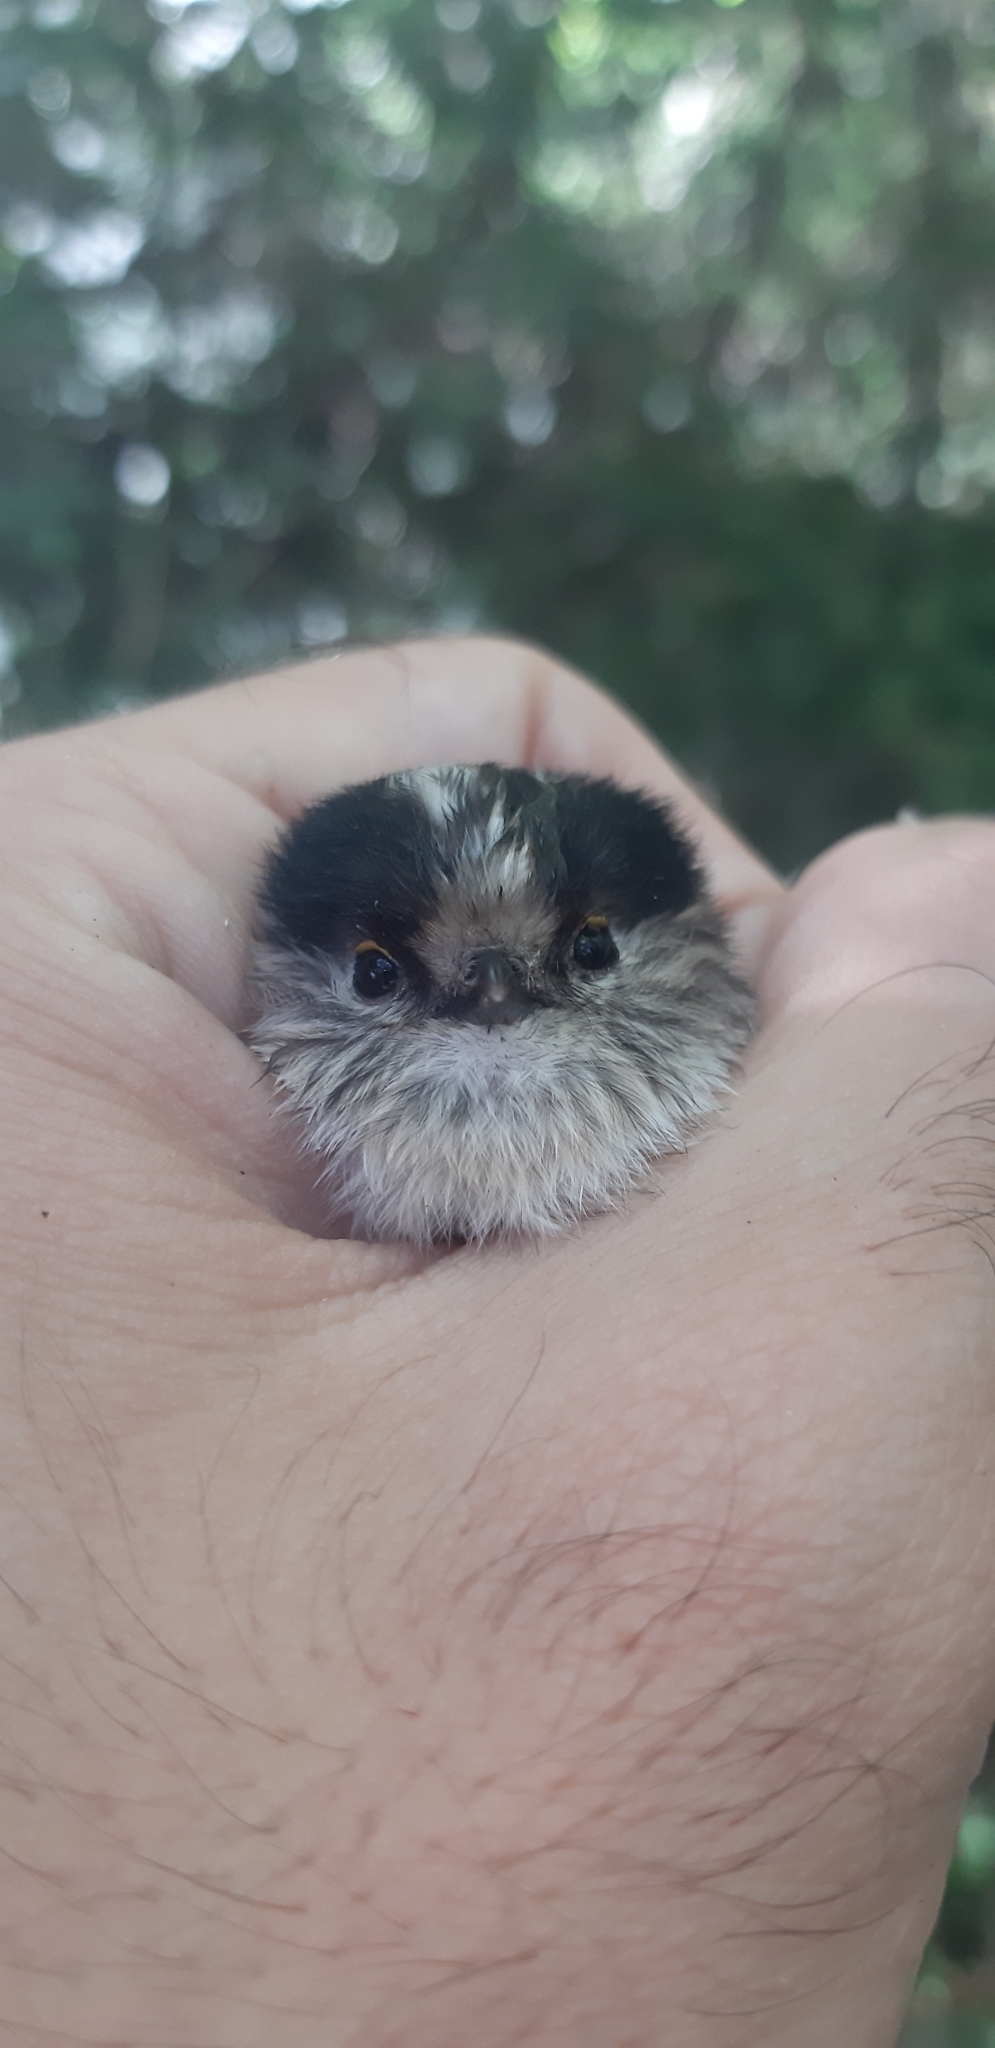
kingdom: Animalia
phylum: Chordata
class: Aves
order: Passeriformes
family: Aegithalidae
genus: Aegithalos
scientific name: Aegithalos caudatus
